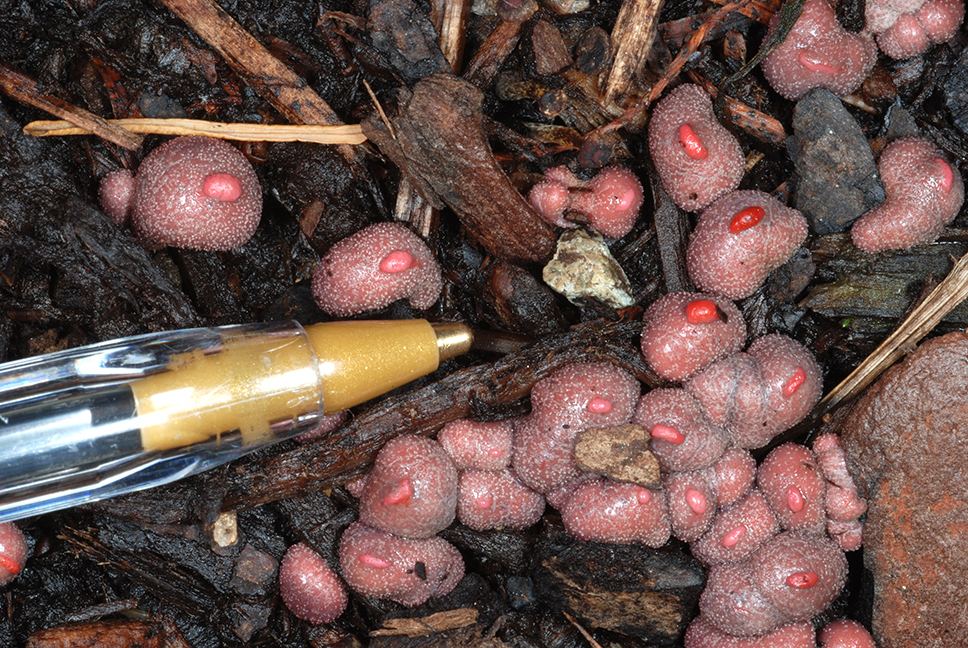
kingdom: Protozoa
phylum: Mycetozoa
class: Myxomycetes
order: Cribrariales
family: Tubiferaceae
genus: Lycogala
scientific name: Lycogala epidendrum
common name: Wolf's milk
